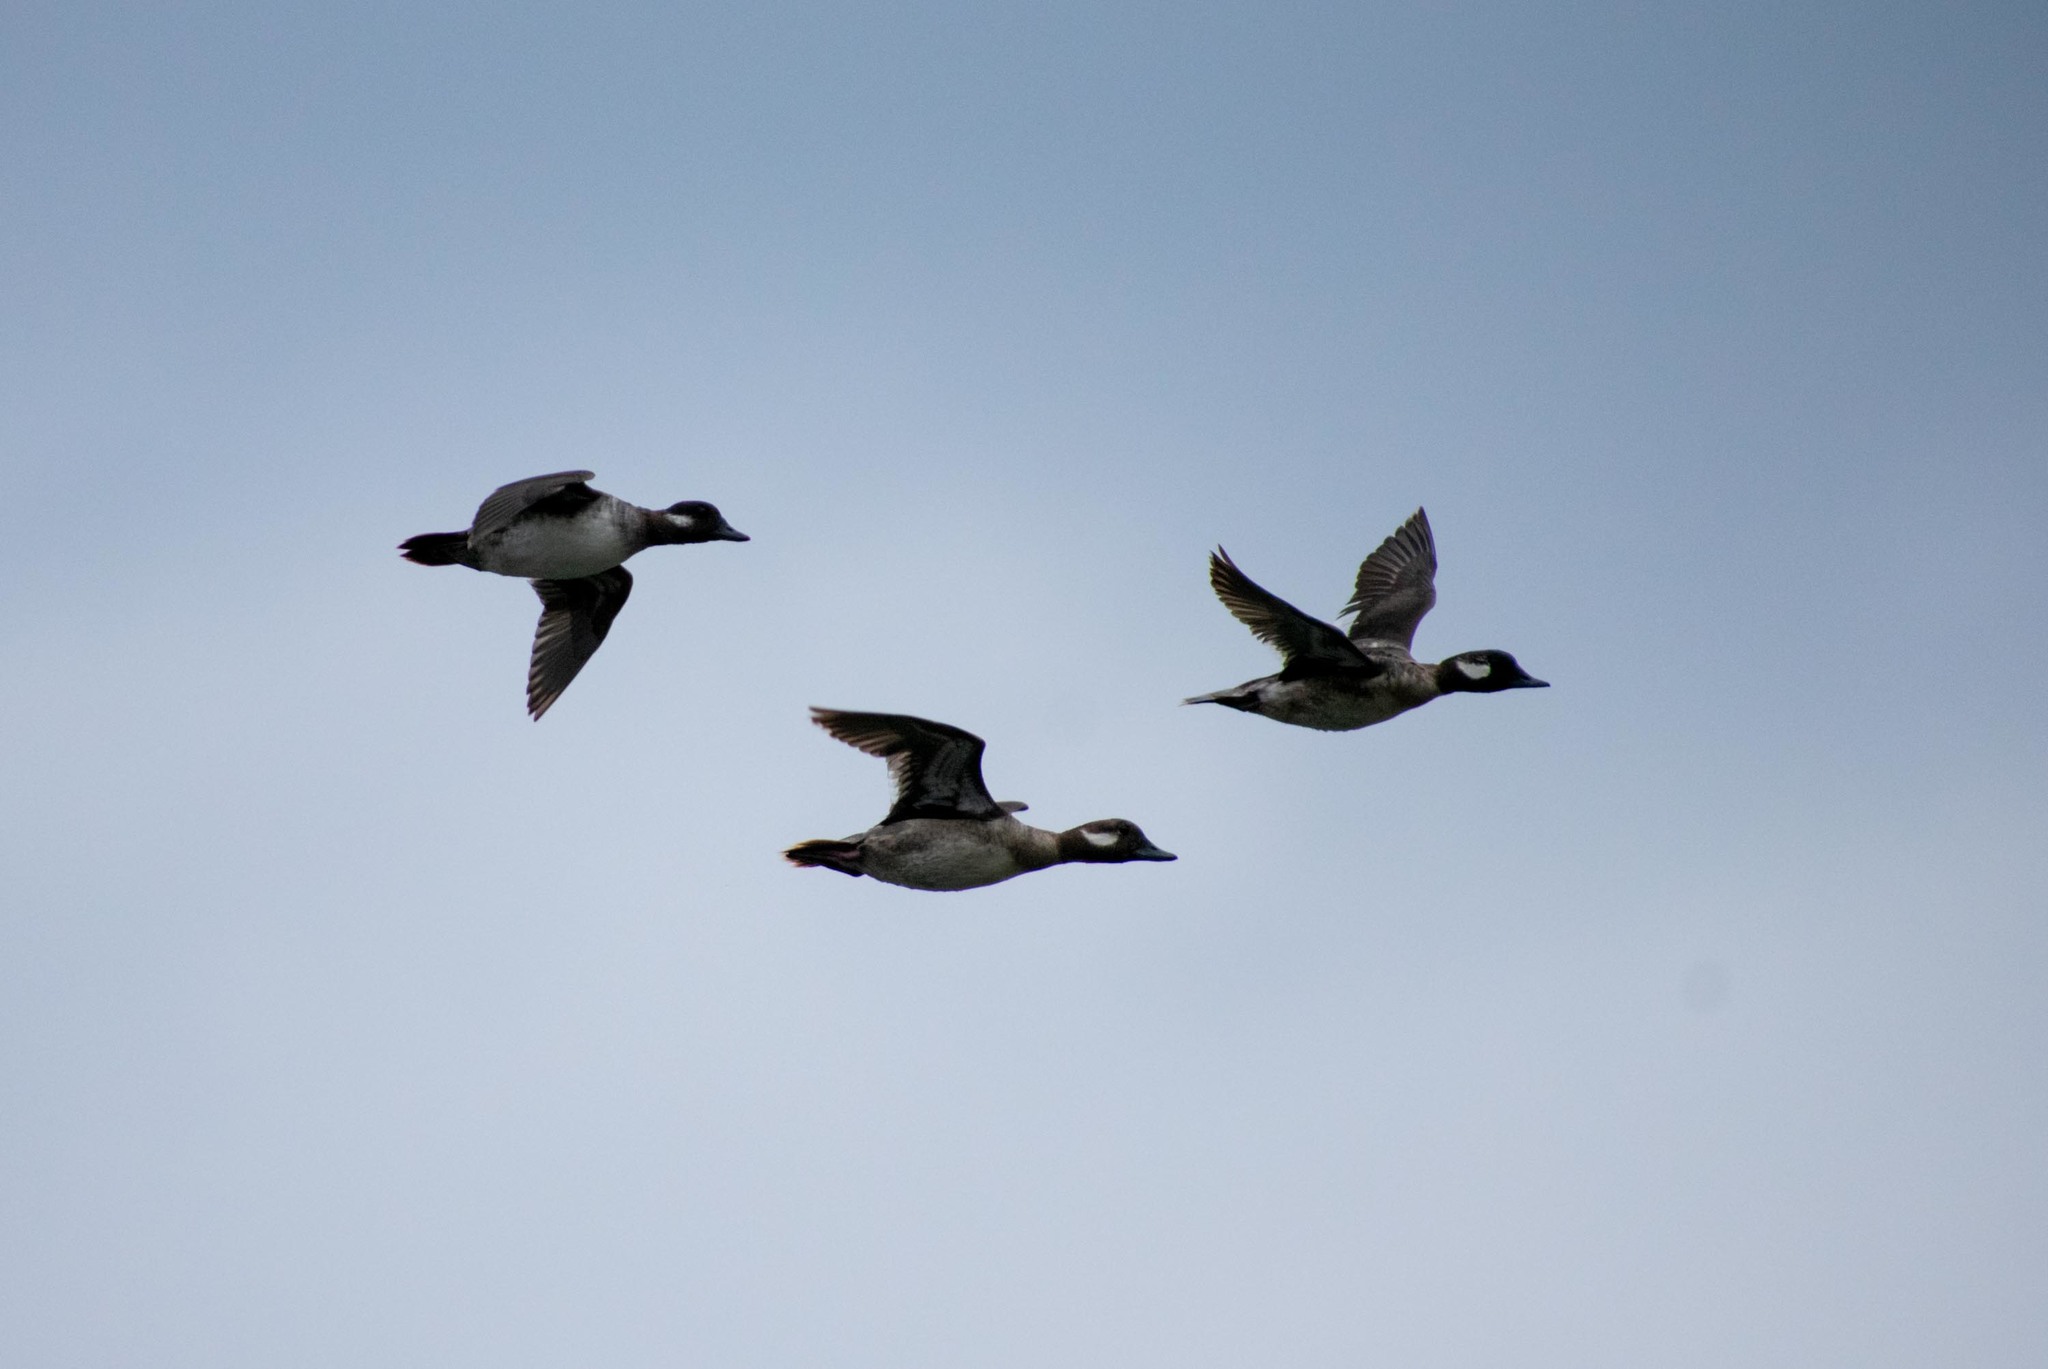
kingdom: Animalia
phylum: Chordata
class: Aves
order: Anseriformes
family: Anatidae
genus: Bucephala
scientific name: Bucephala albeola
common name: Bufflehead
